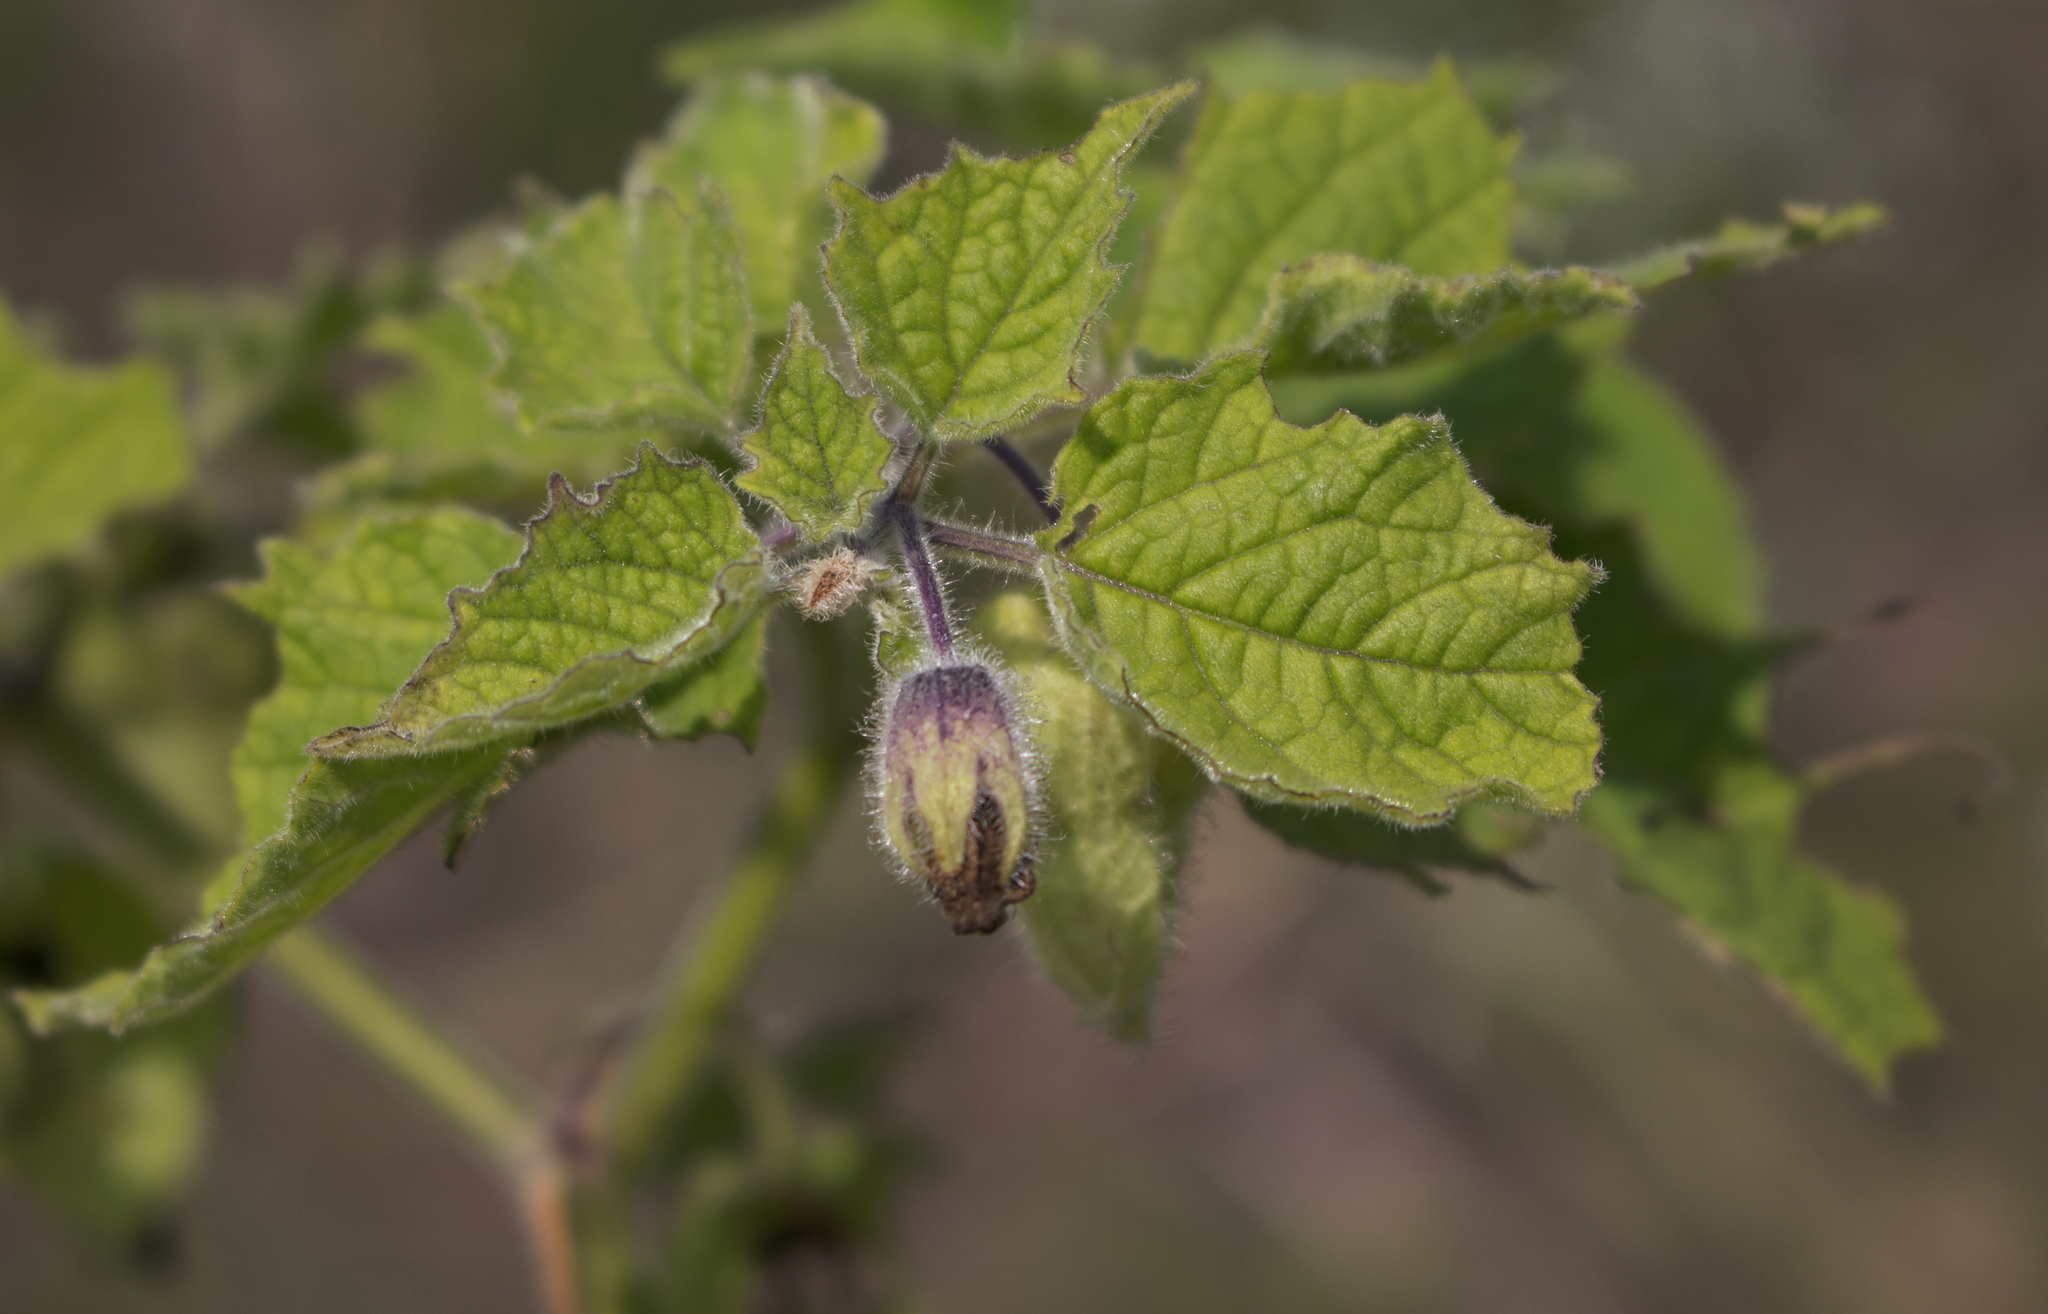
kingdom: Plantae
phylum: Tracheophyta
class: Magnoliopsida
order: Solanales
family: Solanaceae
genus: Physalis
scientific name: Physalis heterophylla
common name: Clammy ground-cherry
